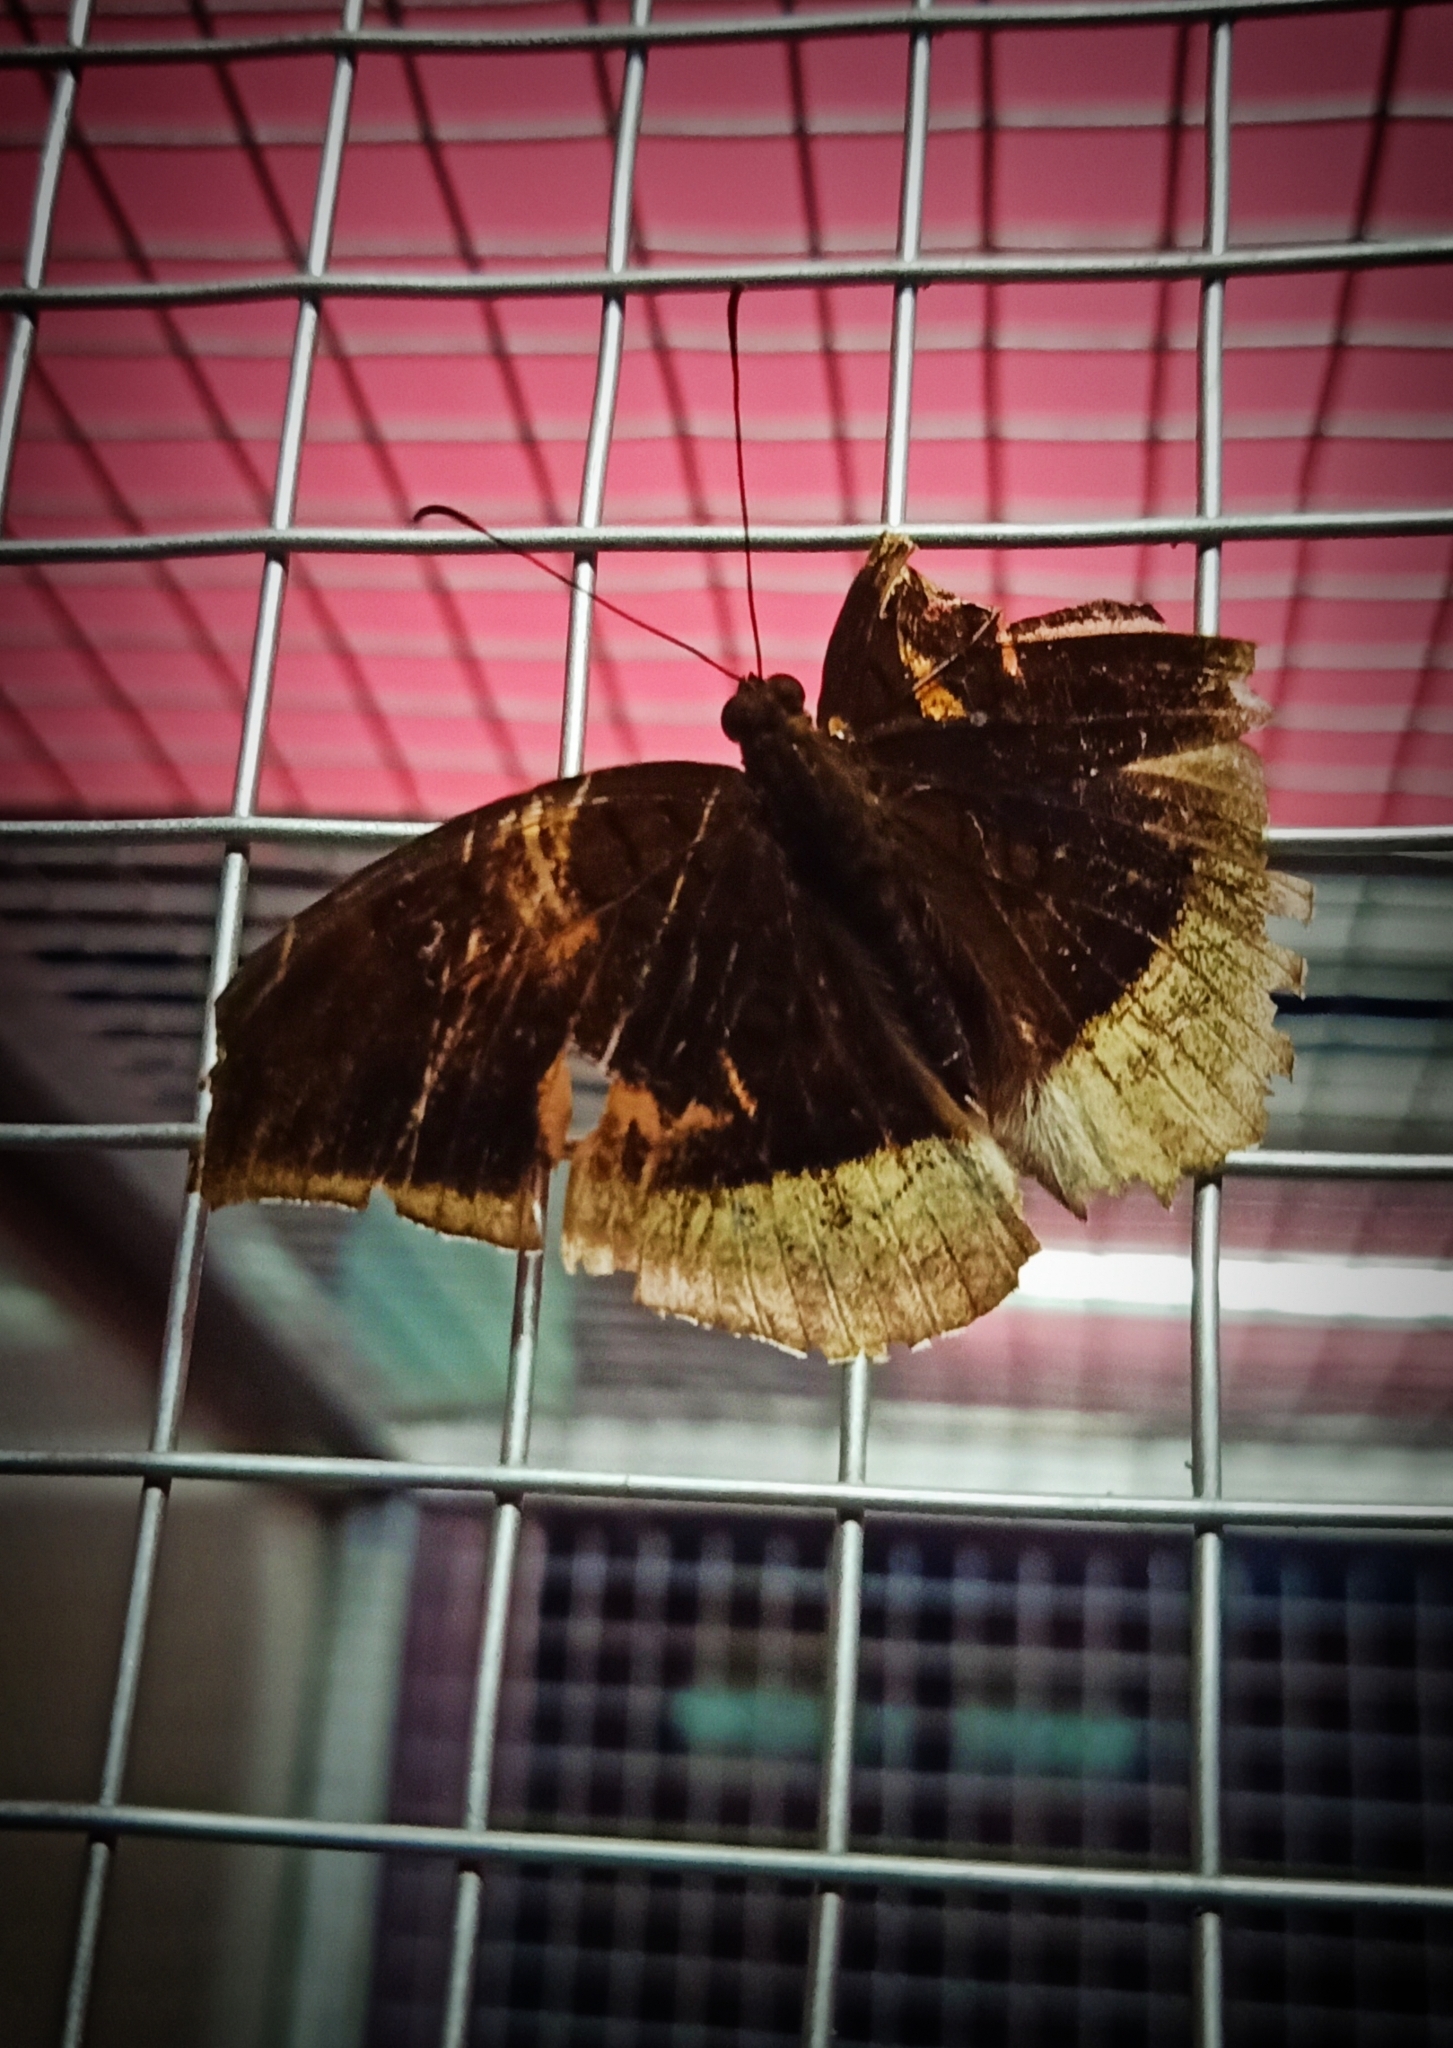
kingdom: Animalia
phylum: Arthropoda
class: Insecta
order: Lepidoptera
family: Nymphalidae
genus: Tanaecia
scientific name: Tanaecia lepidea
